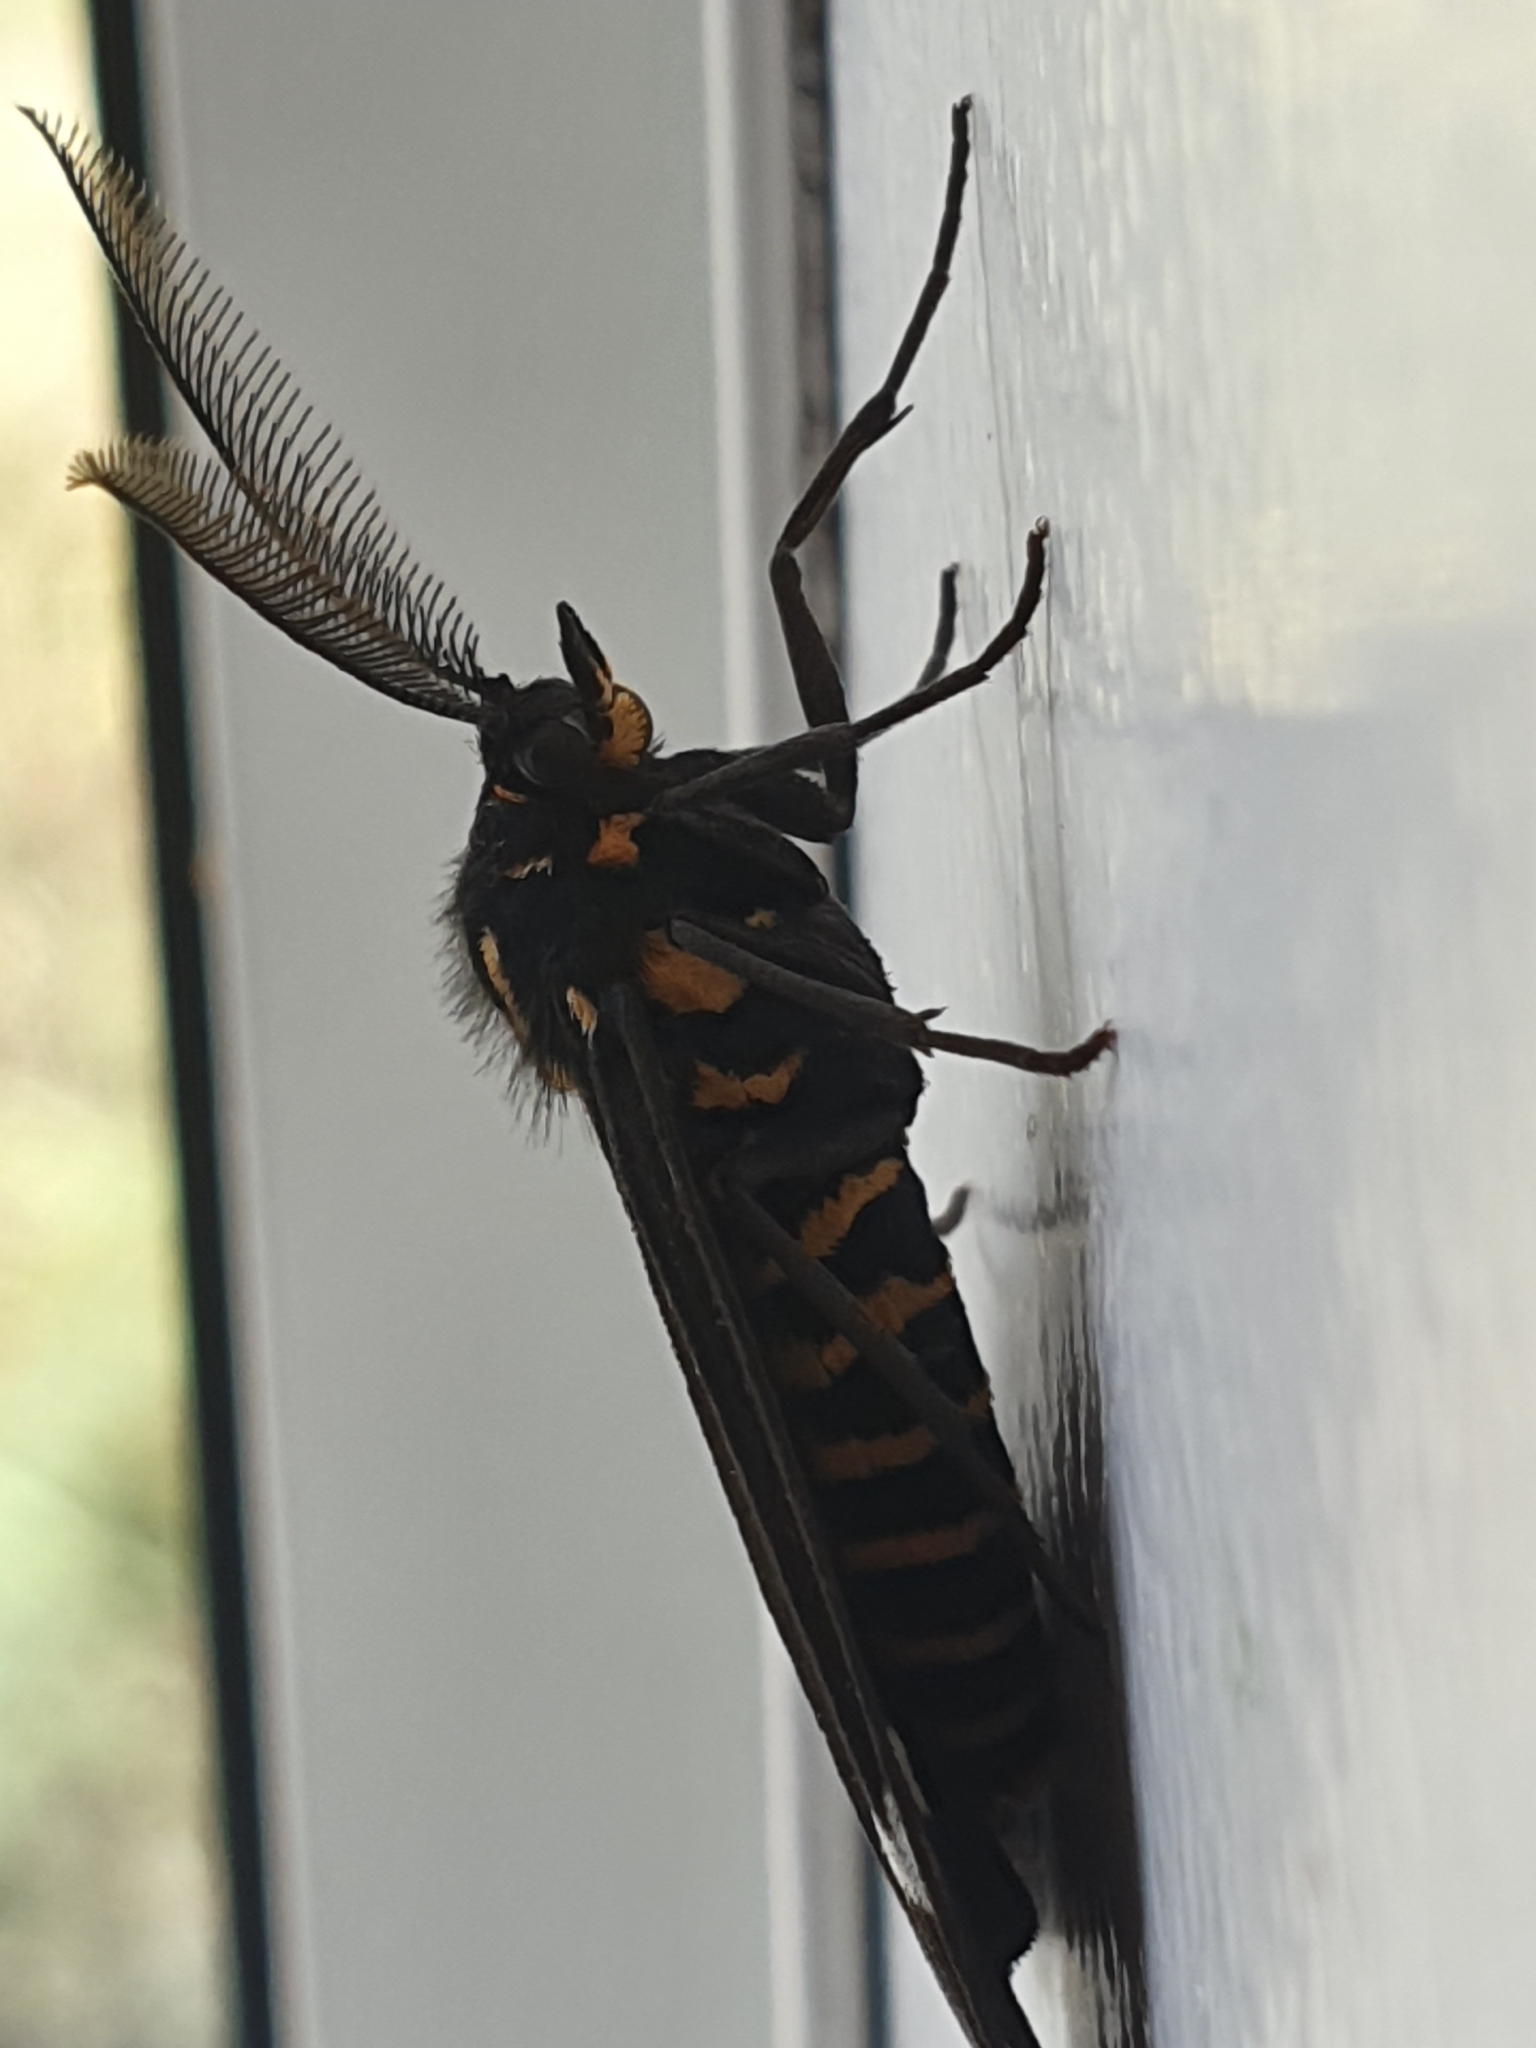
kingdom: Animalia
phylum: Arthropoda
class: Insecta
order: Lepidoptera
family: Erebidae
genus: Nyctemera
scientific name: Nyctemera annulatum
